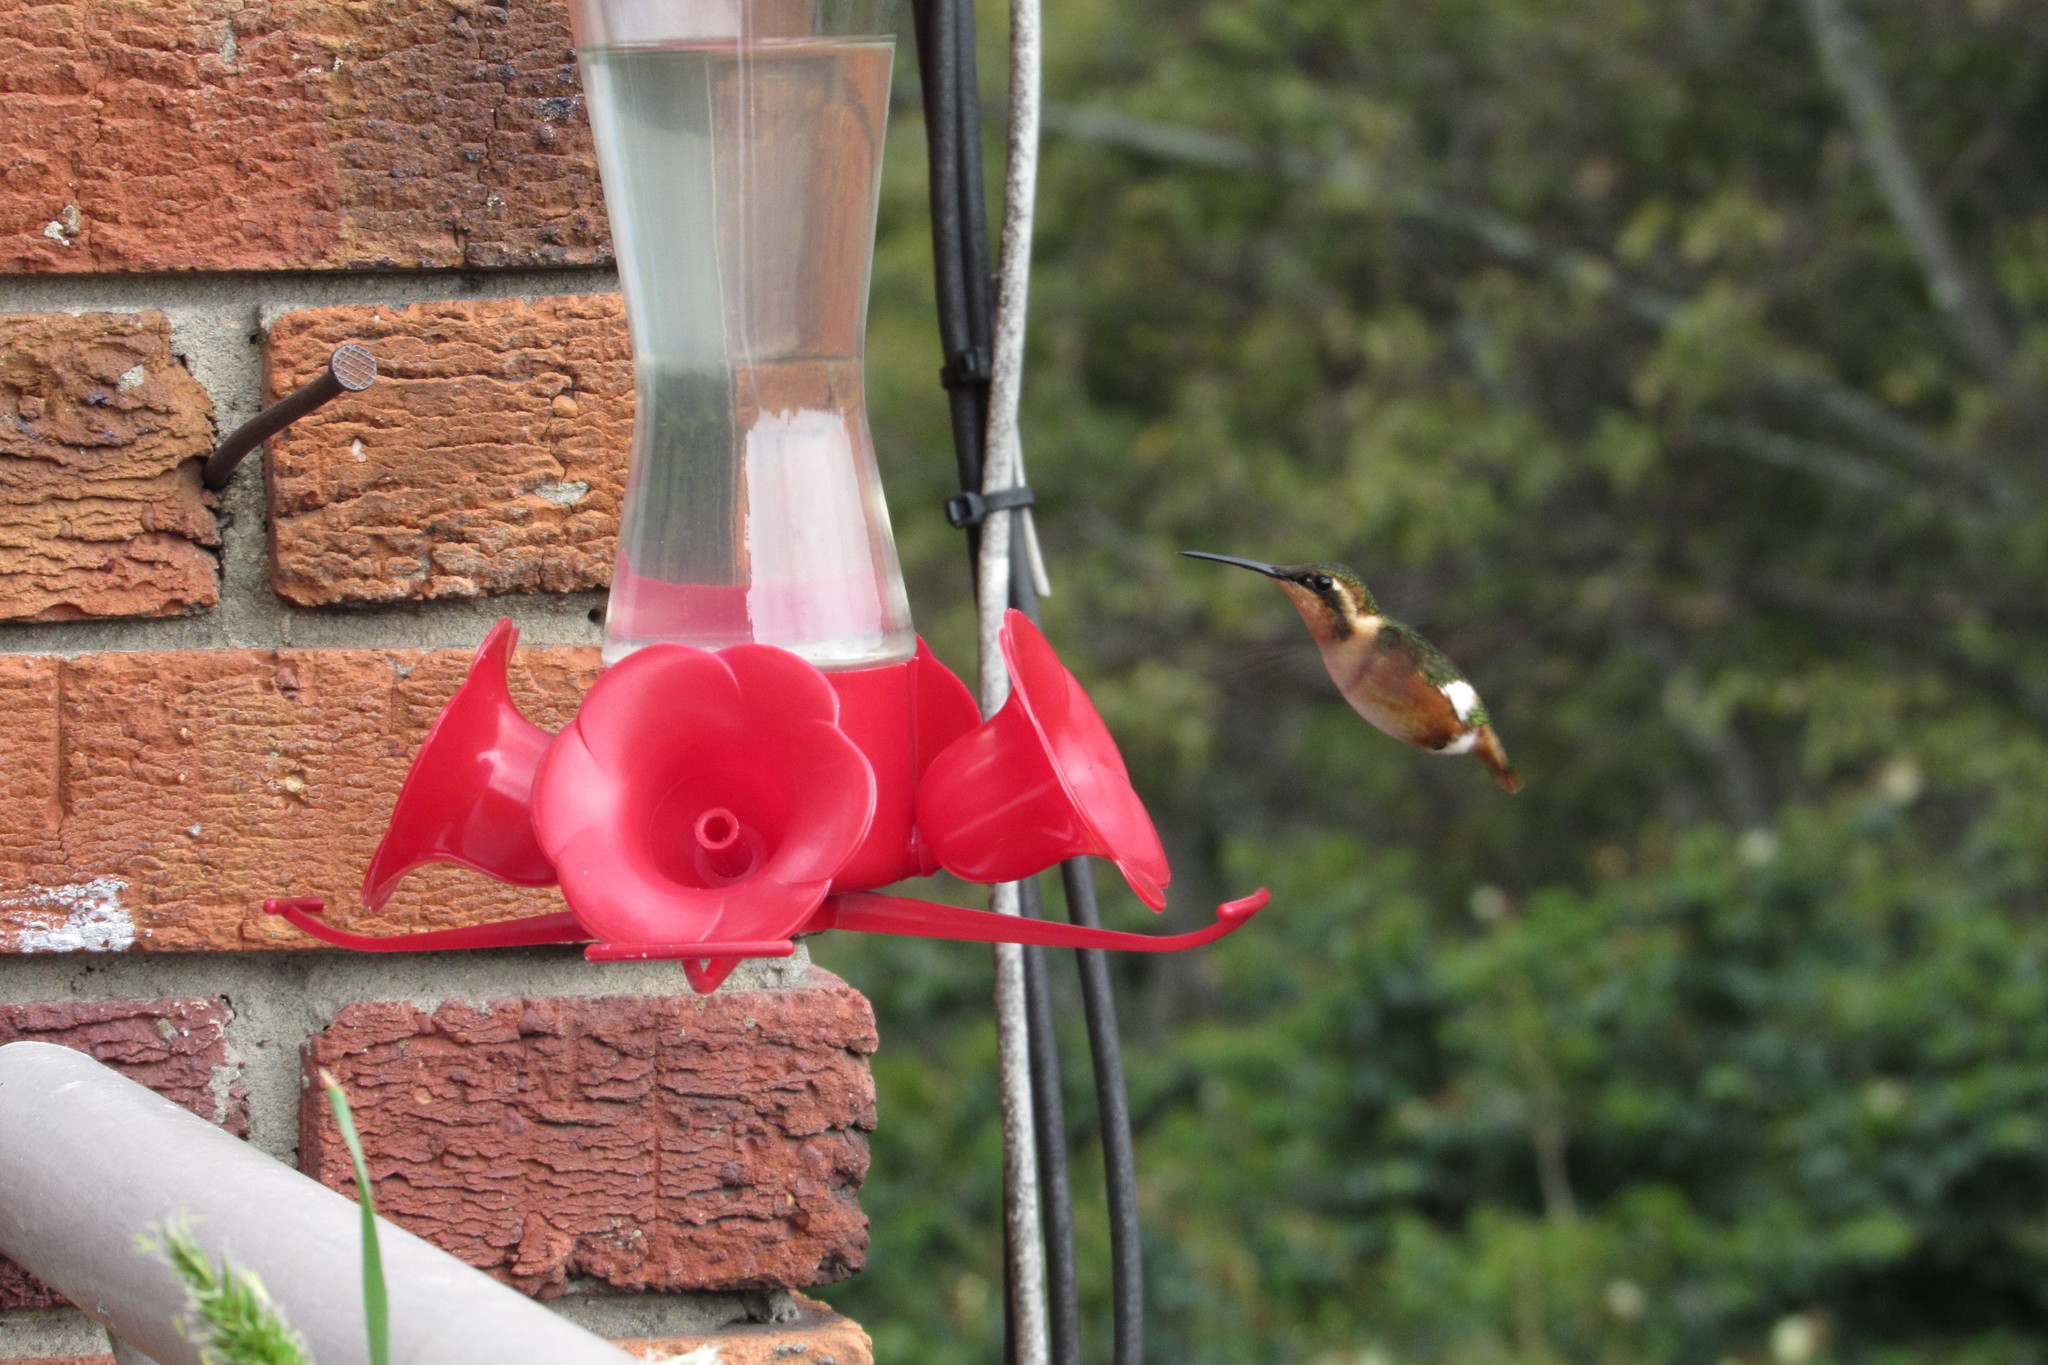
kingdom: Animalia
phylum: Chordata
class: Aves
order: Apodiformes
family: Trochilidae
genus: Chaetocercus
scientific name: Chaetocercus mulsant
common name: White-bellied woodstar
